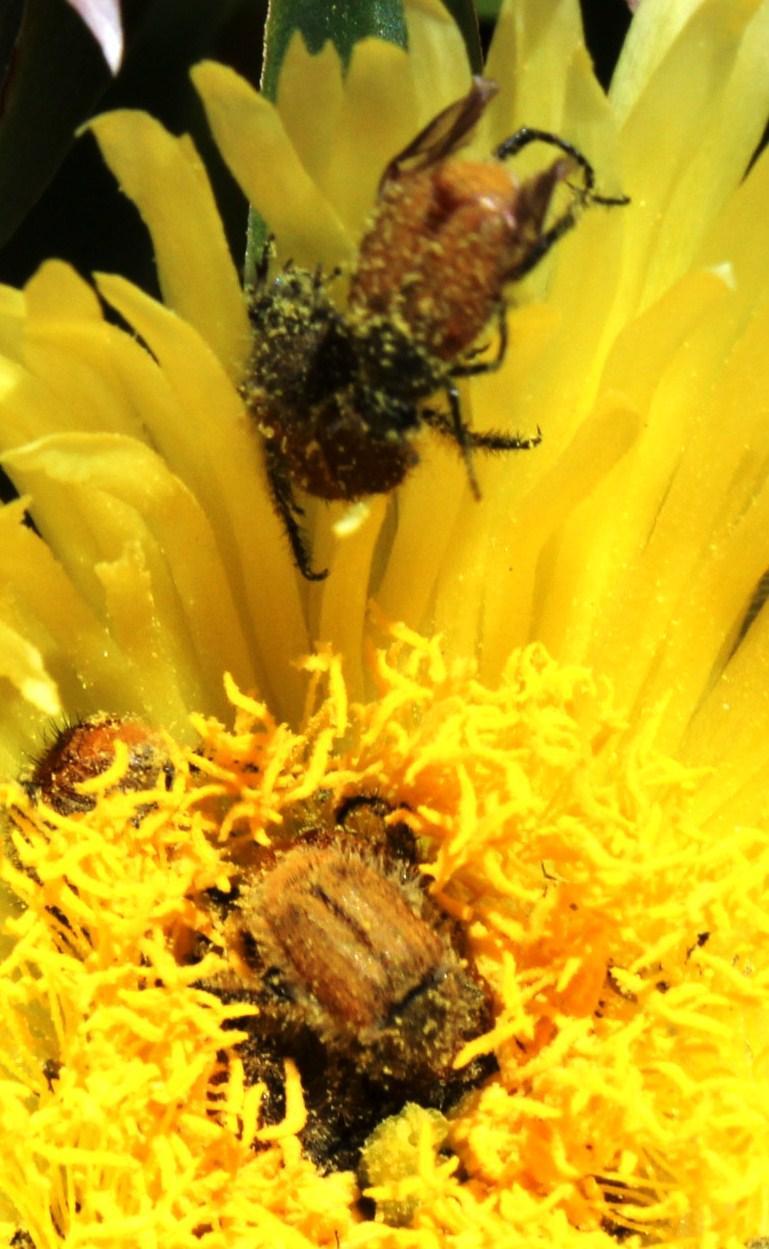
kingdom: Animalia
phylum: Arthropoda
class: Insecta
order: Coleoptera
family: Scarabaeidae
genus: Chasme
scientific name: Chasme decora
